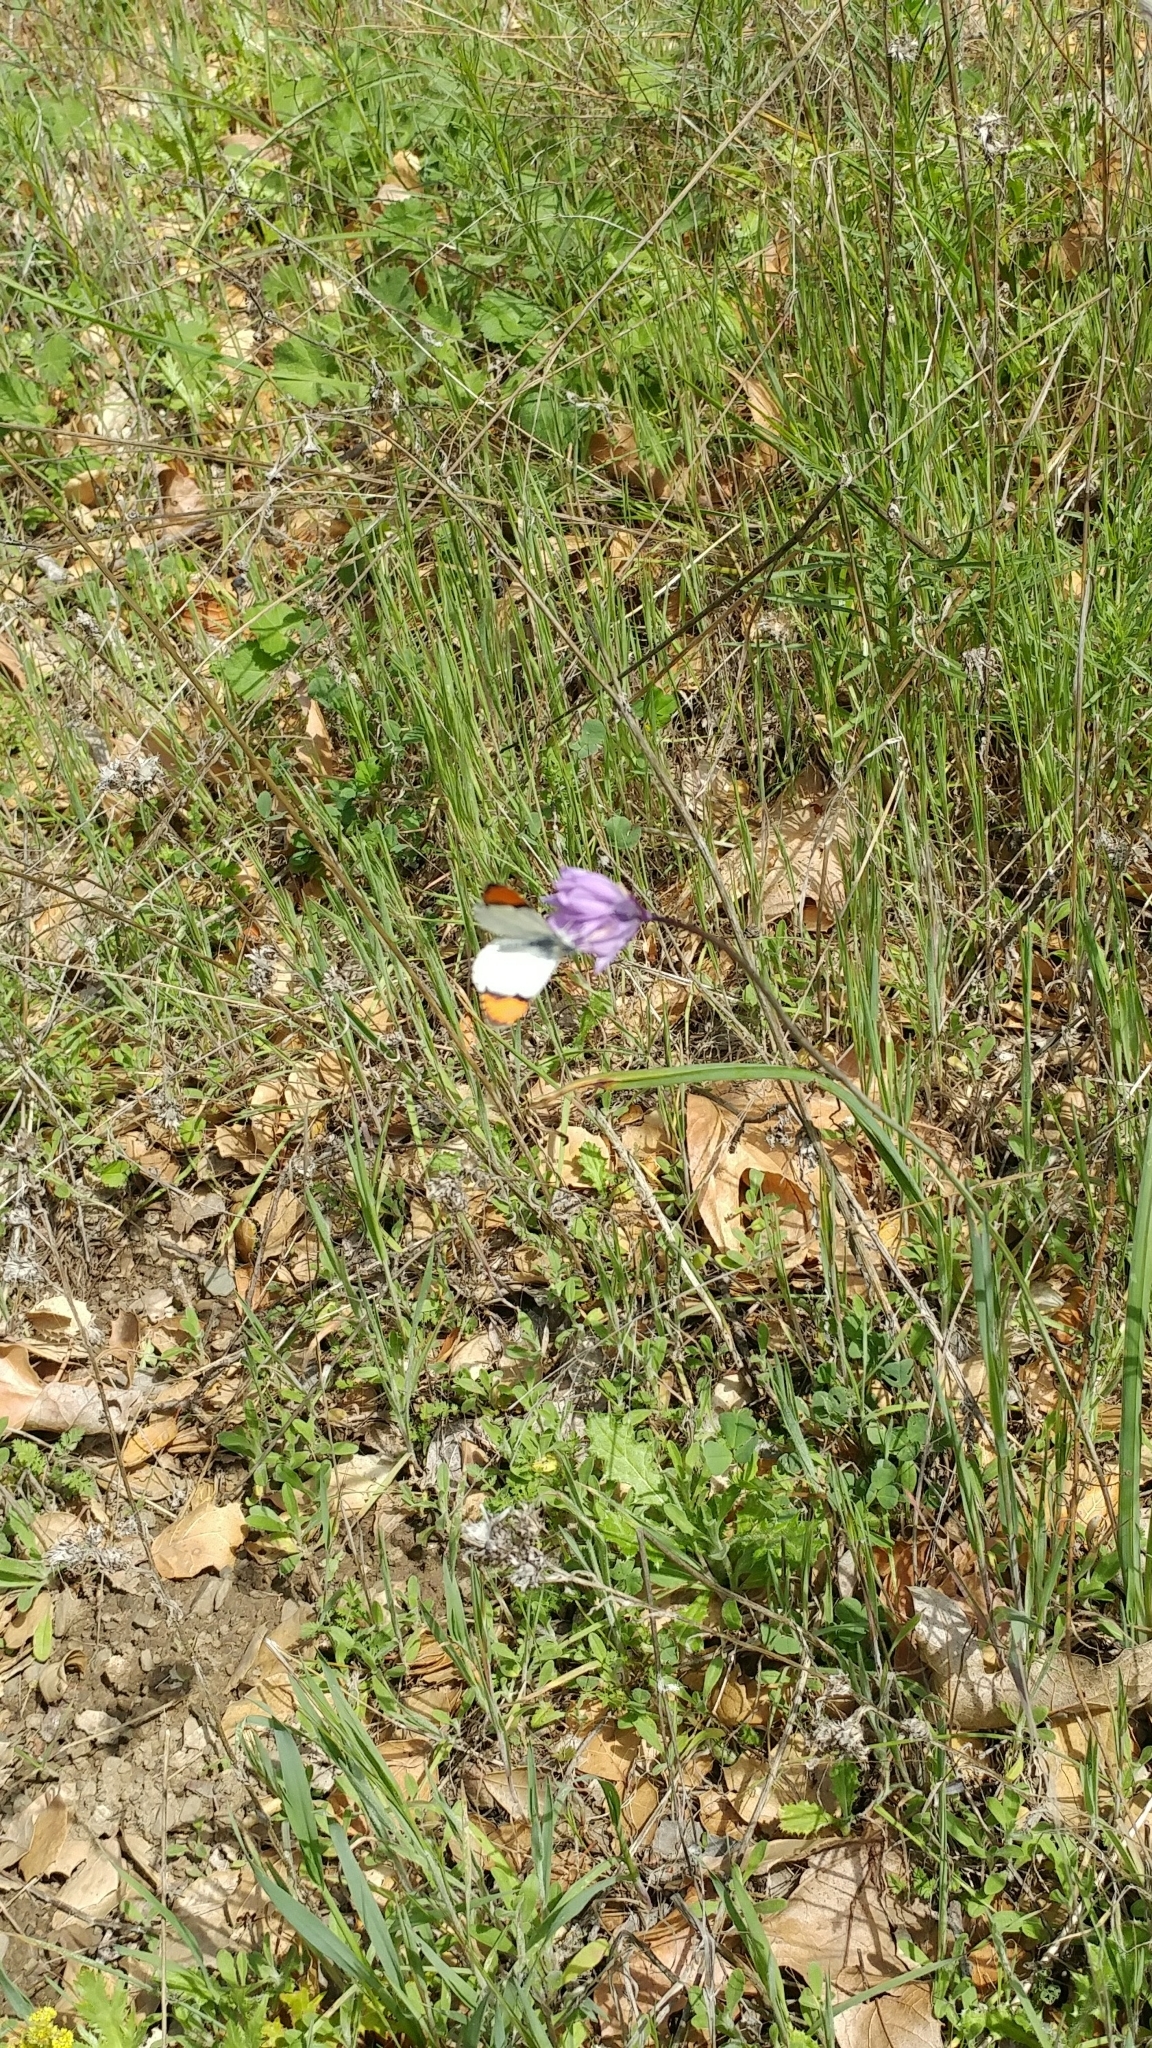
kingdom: Animalia
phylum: Arthropoda
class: Insecta
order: Lepidoptera
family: Pieridae
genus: Anthocharis
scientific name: Anthocharis sara
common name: Sara's orangetip
